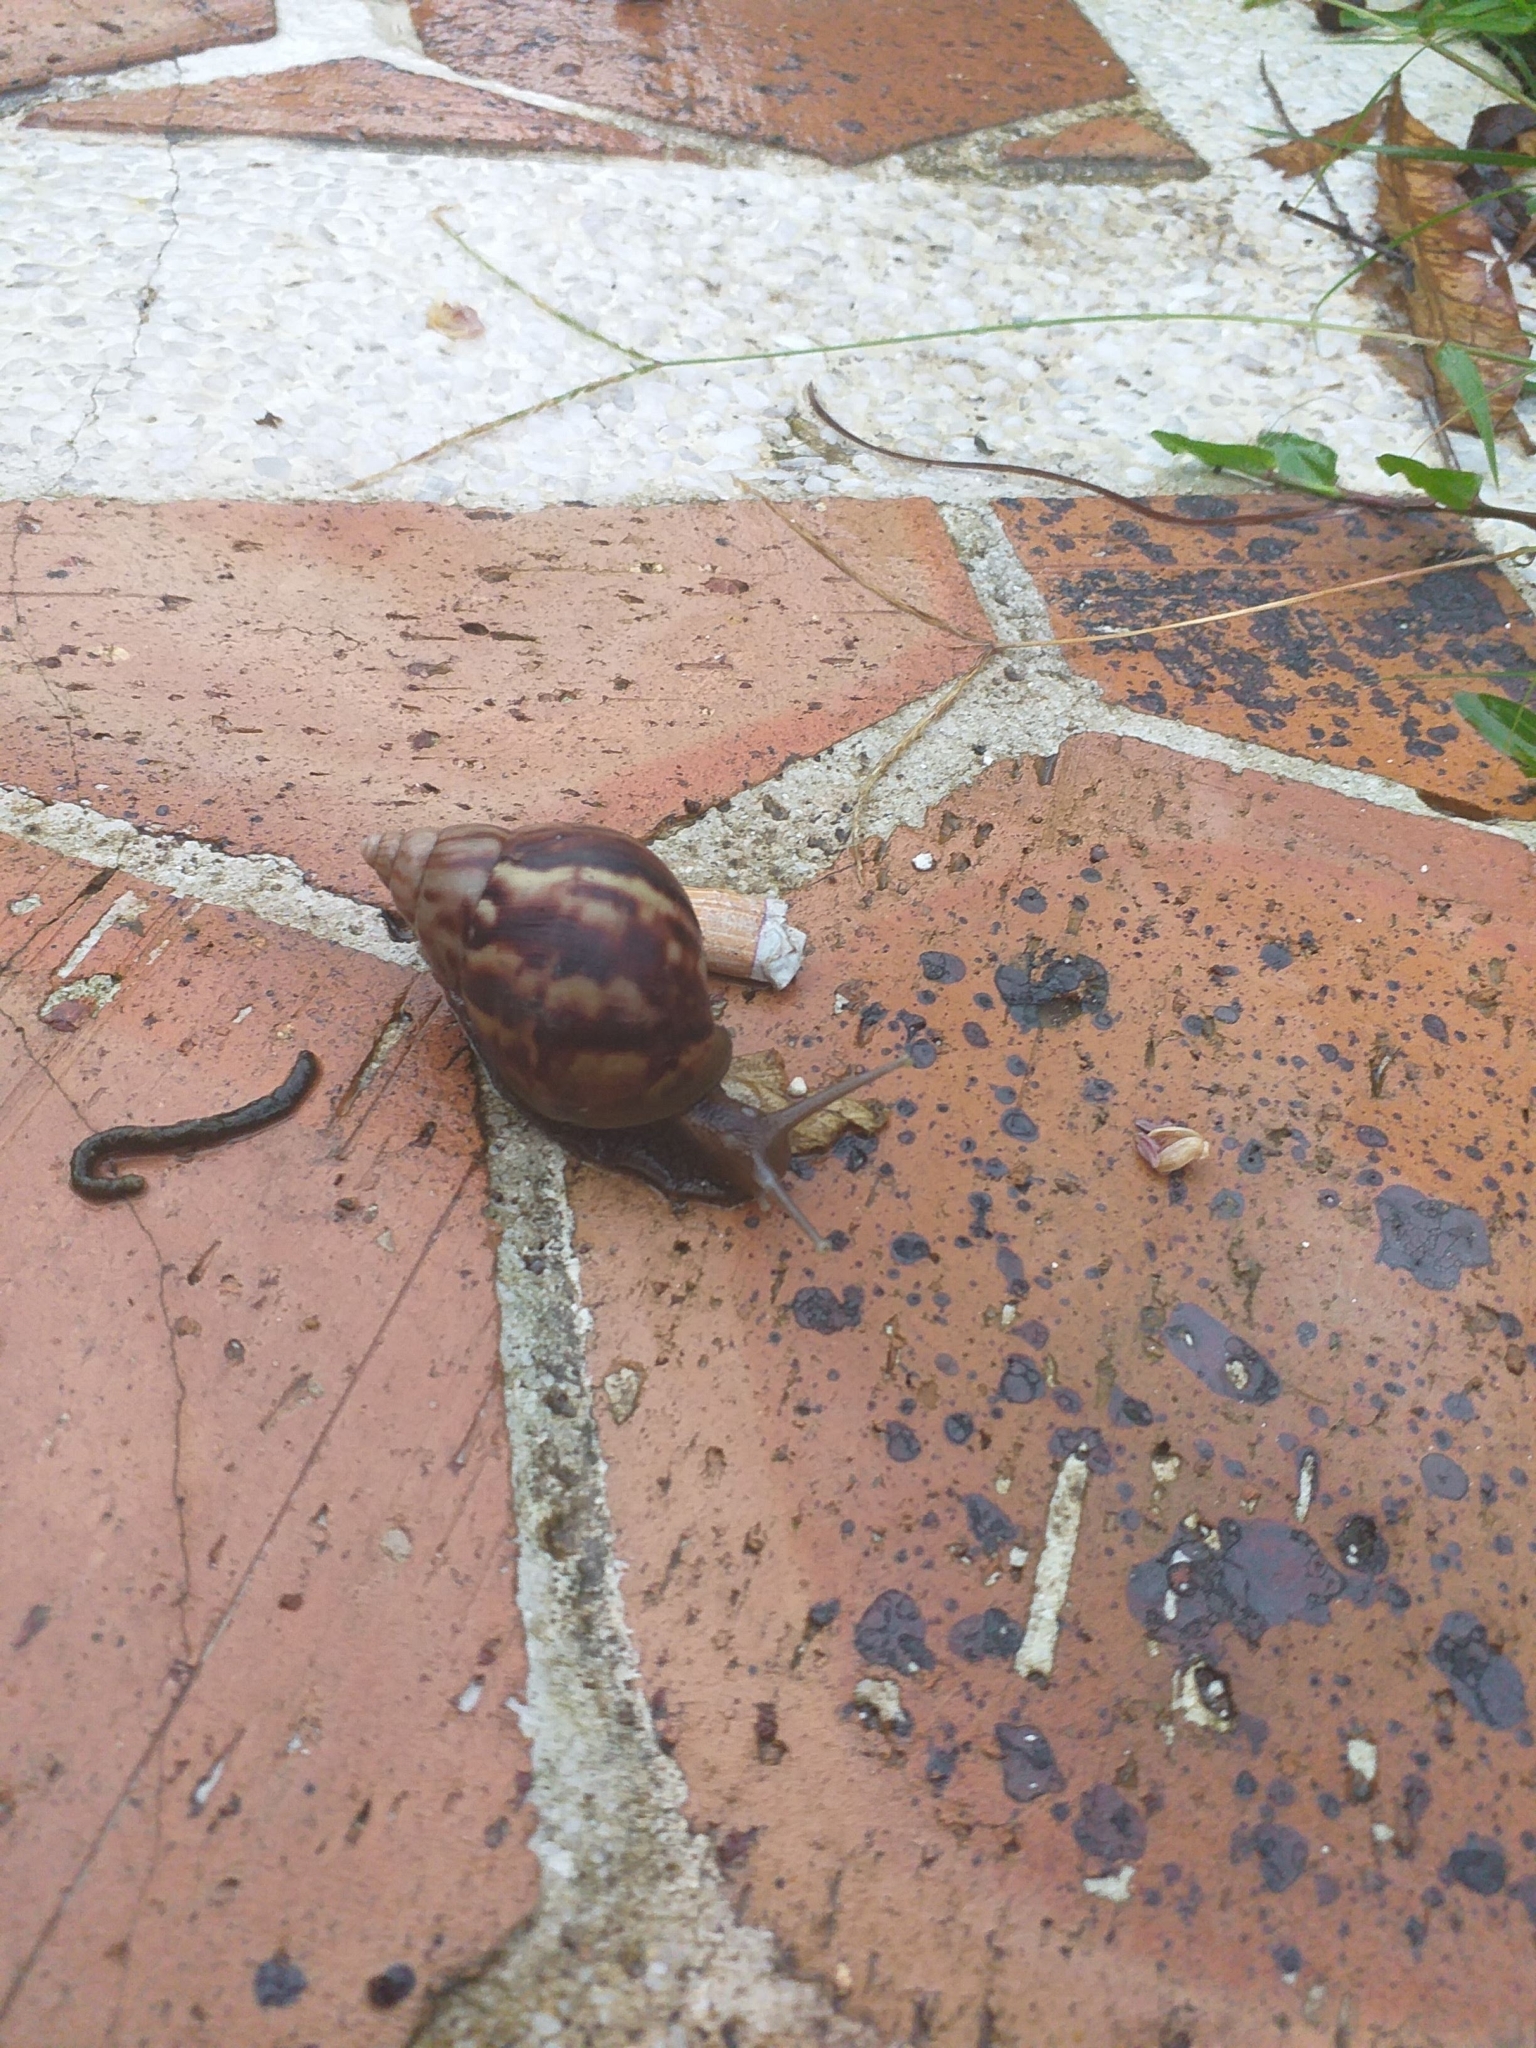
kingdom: Animalia
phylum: Mollusca
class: Gastropoda
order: Stylommatophora
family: Achatinidae
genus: Lissachatina
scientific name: Lissachatina fulica
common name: Giant african snail
